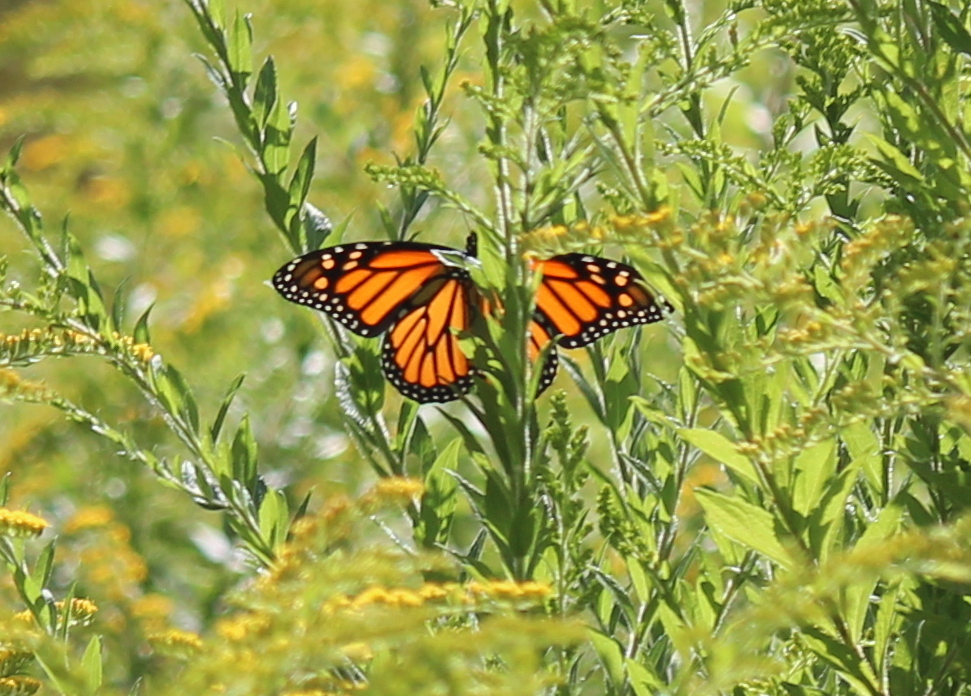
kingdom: Animalia
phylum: Arthropoda
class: Insecta
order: Lepidoptera
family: Nymphalidae
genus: Danaus
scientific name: Danaus plexippus
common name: Monarch
